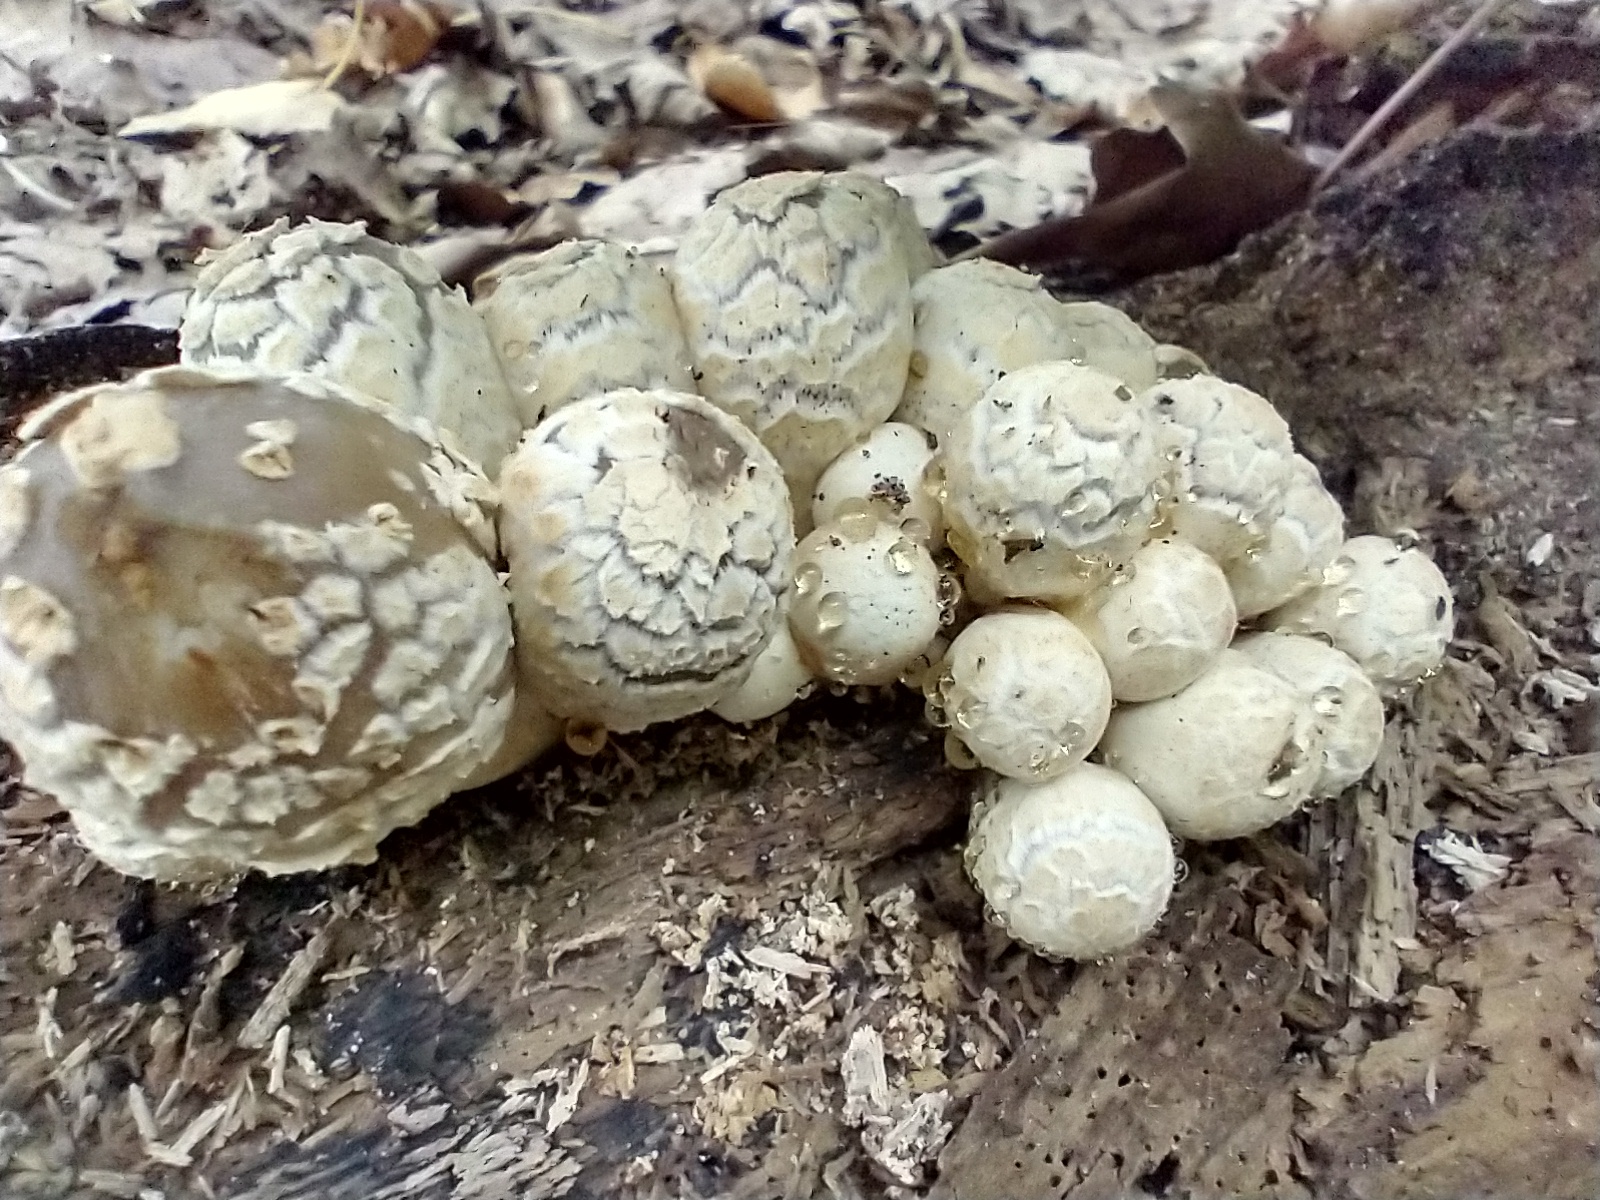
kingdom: Fungi
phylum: Basidiomycota
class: Agaricomycetes
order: Agaricales
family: Psathyrellaceae
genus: Coprinopsis
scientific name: Coprinopsis variegata
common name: Scaly ink cap
